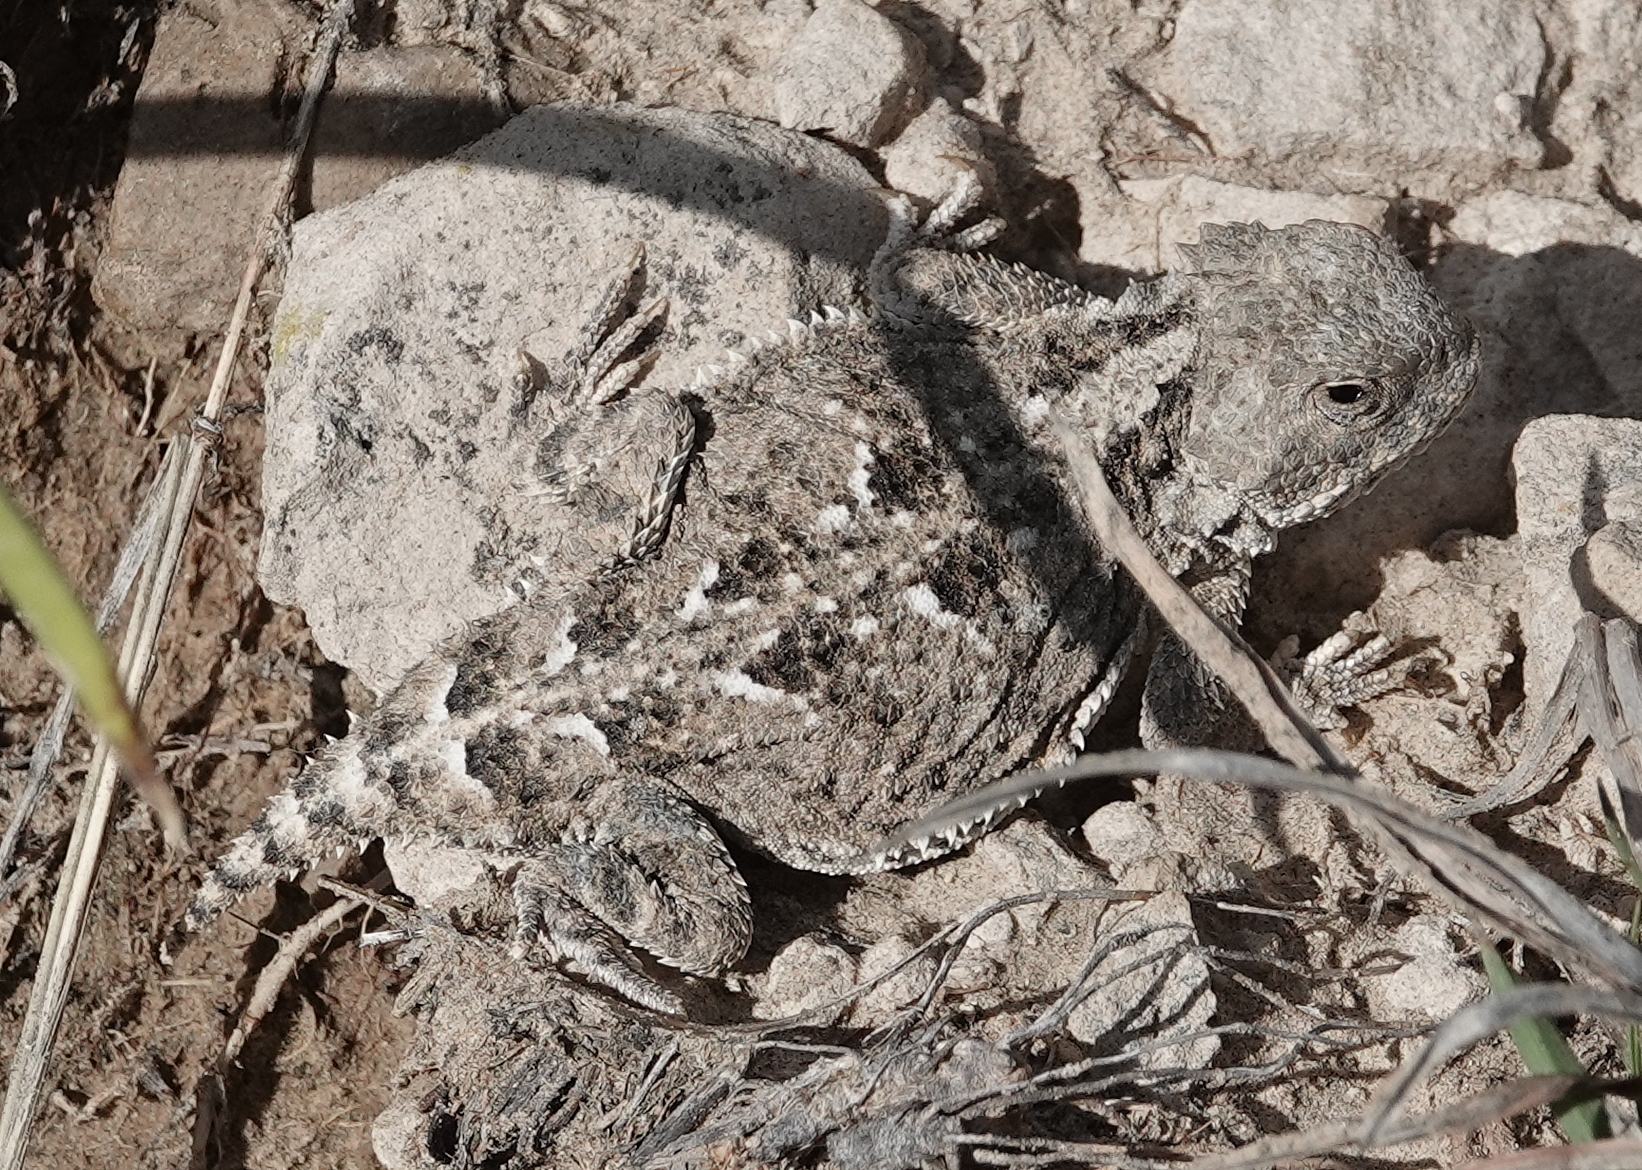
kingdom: Animalia
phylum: Chordata
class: Squamata
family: Phrynosomatidae
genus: Phrynosoma
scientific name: Phrynosoma hernandesi
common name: Greater short-horned lizard
